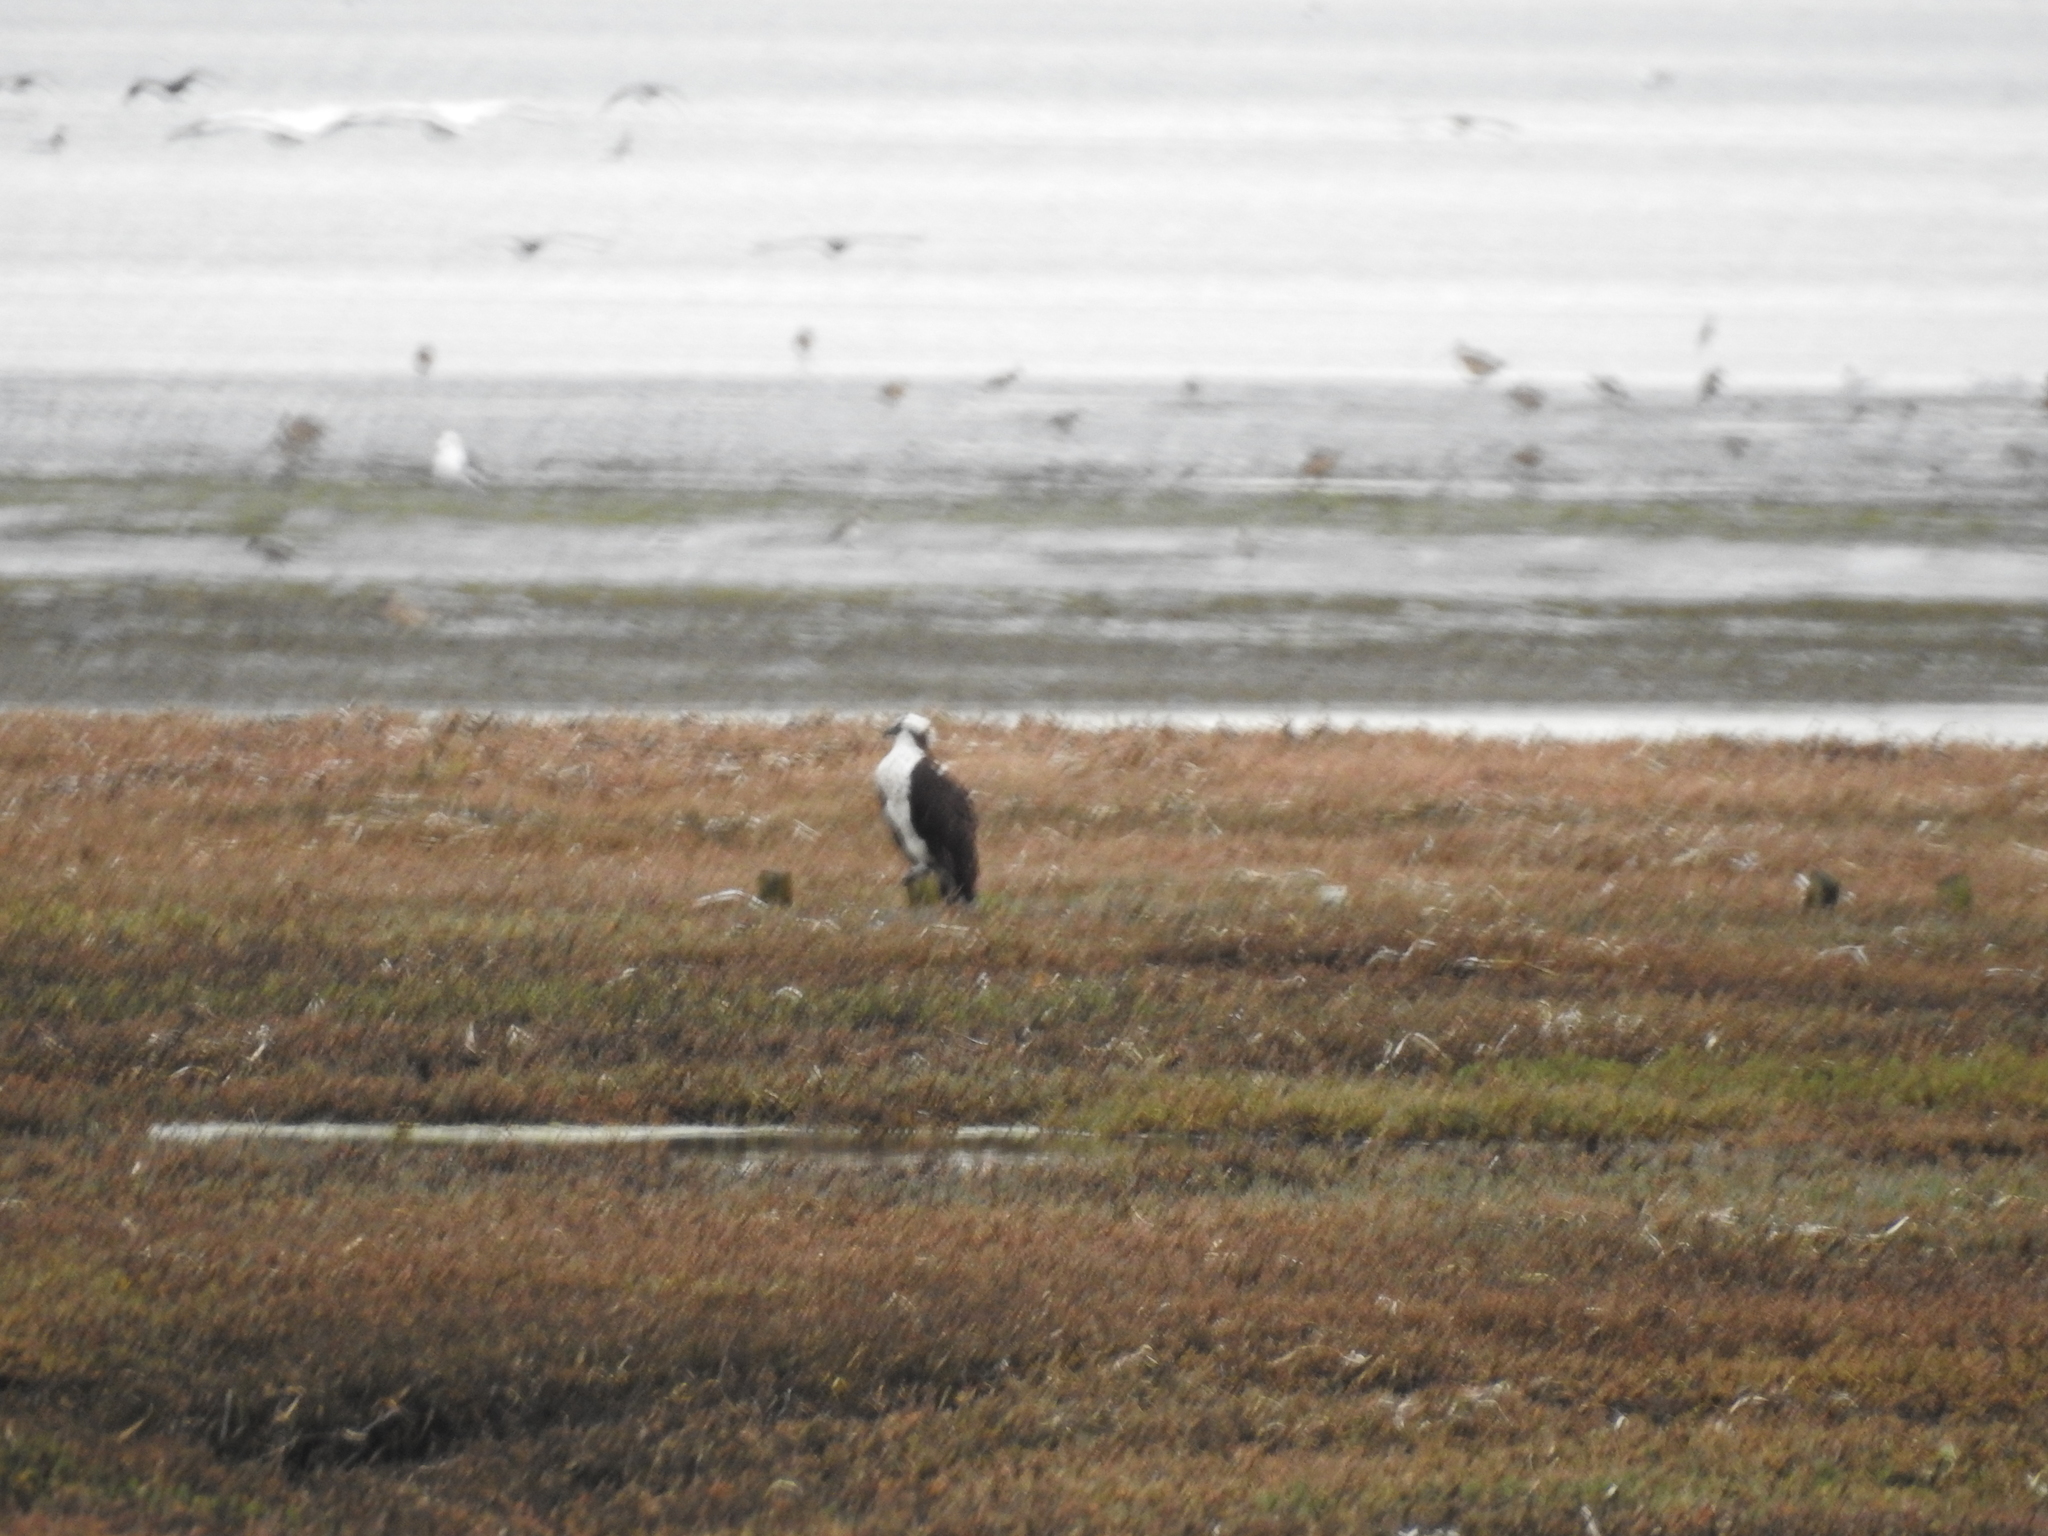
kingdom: Animalia
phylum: Chordata
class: Aves
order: Accipitriformes
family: Pandionidae
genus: Pandion
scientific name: Pandion haliaetus
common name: Osprey
